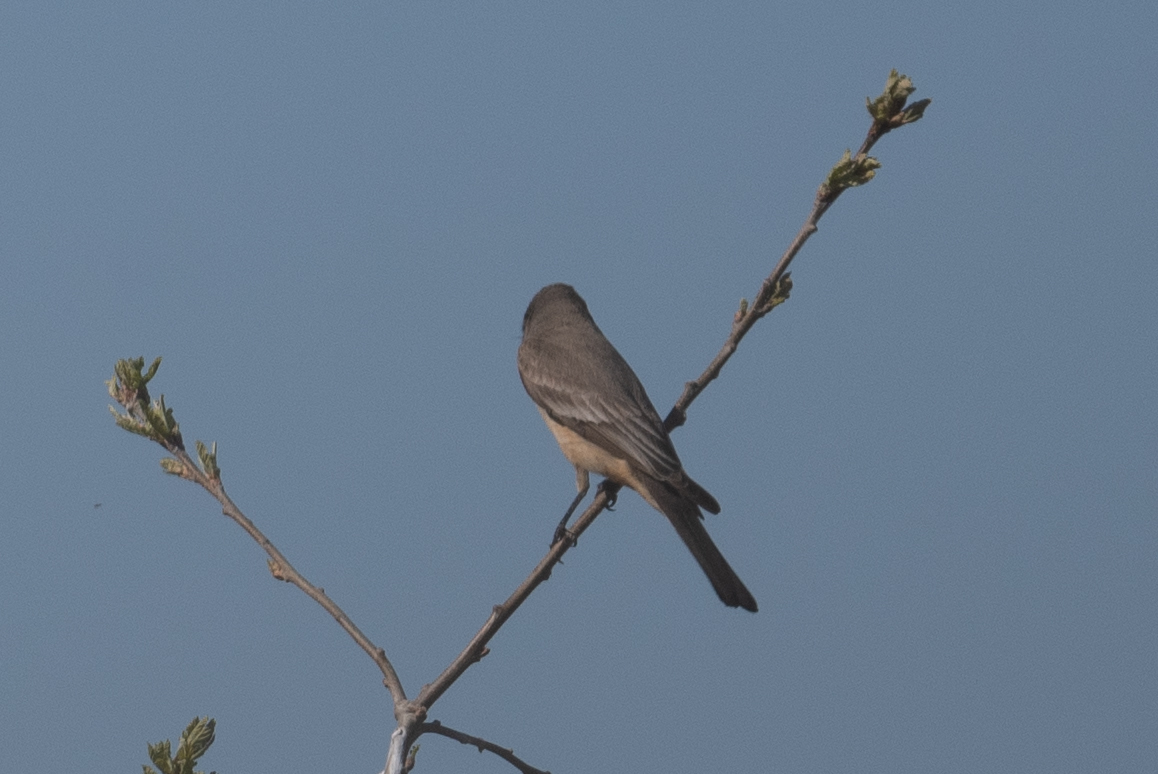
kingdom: Animalia
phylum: Chordata
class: Aves
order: Passeriformes
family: Tyrannidae
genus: Sayornis
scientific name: Sayornis saya
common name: Say's phoebe
